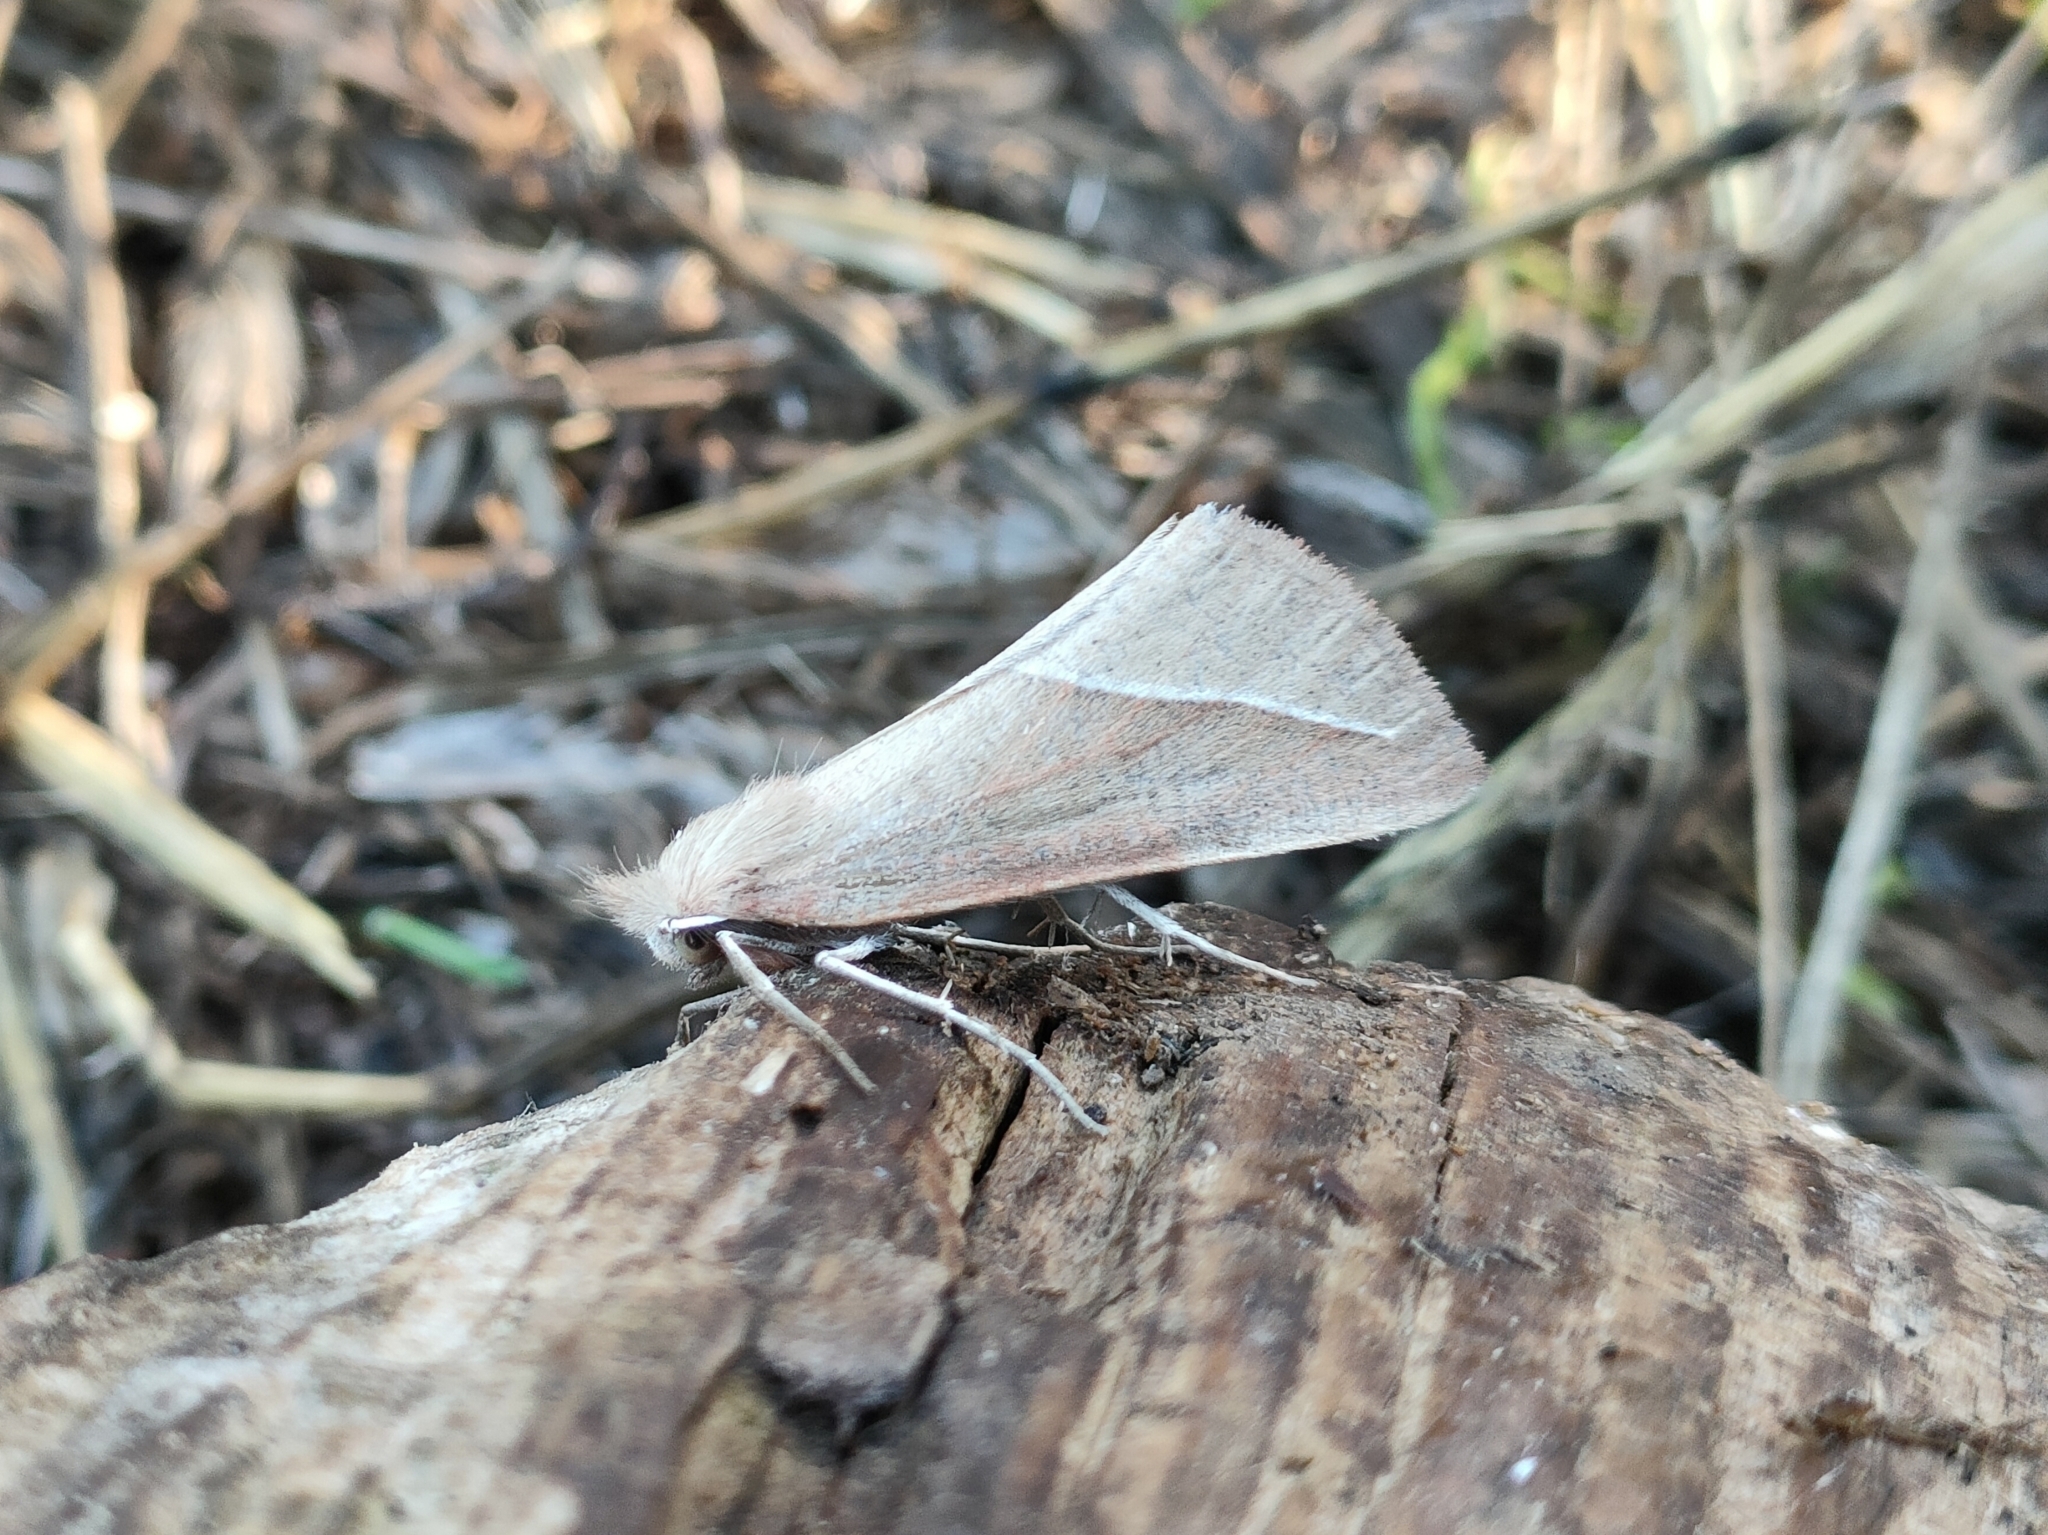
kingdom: Animalia
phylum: Arthropoda
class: Insecta
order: Lepidoptera
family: Geometridae
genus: Compsoptera
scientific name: Compsoptera opacaria
